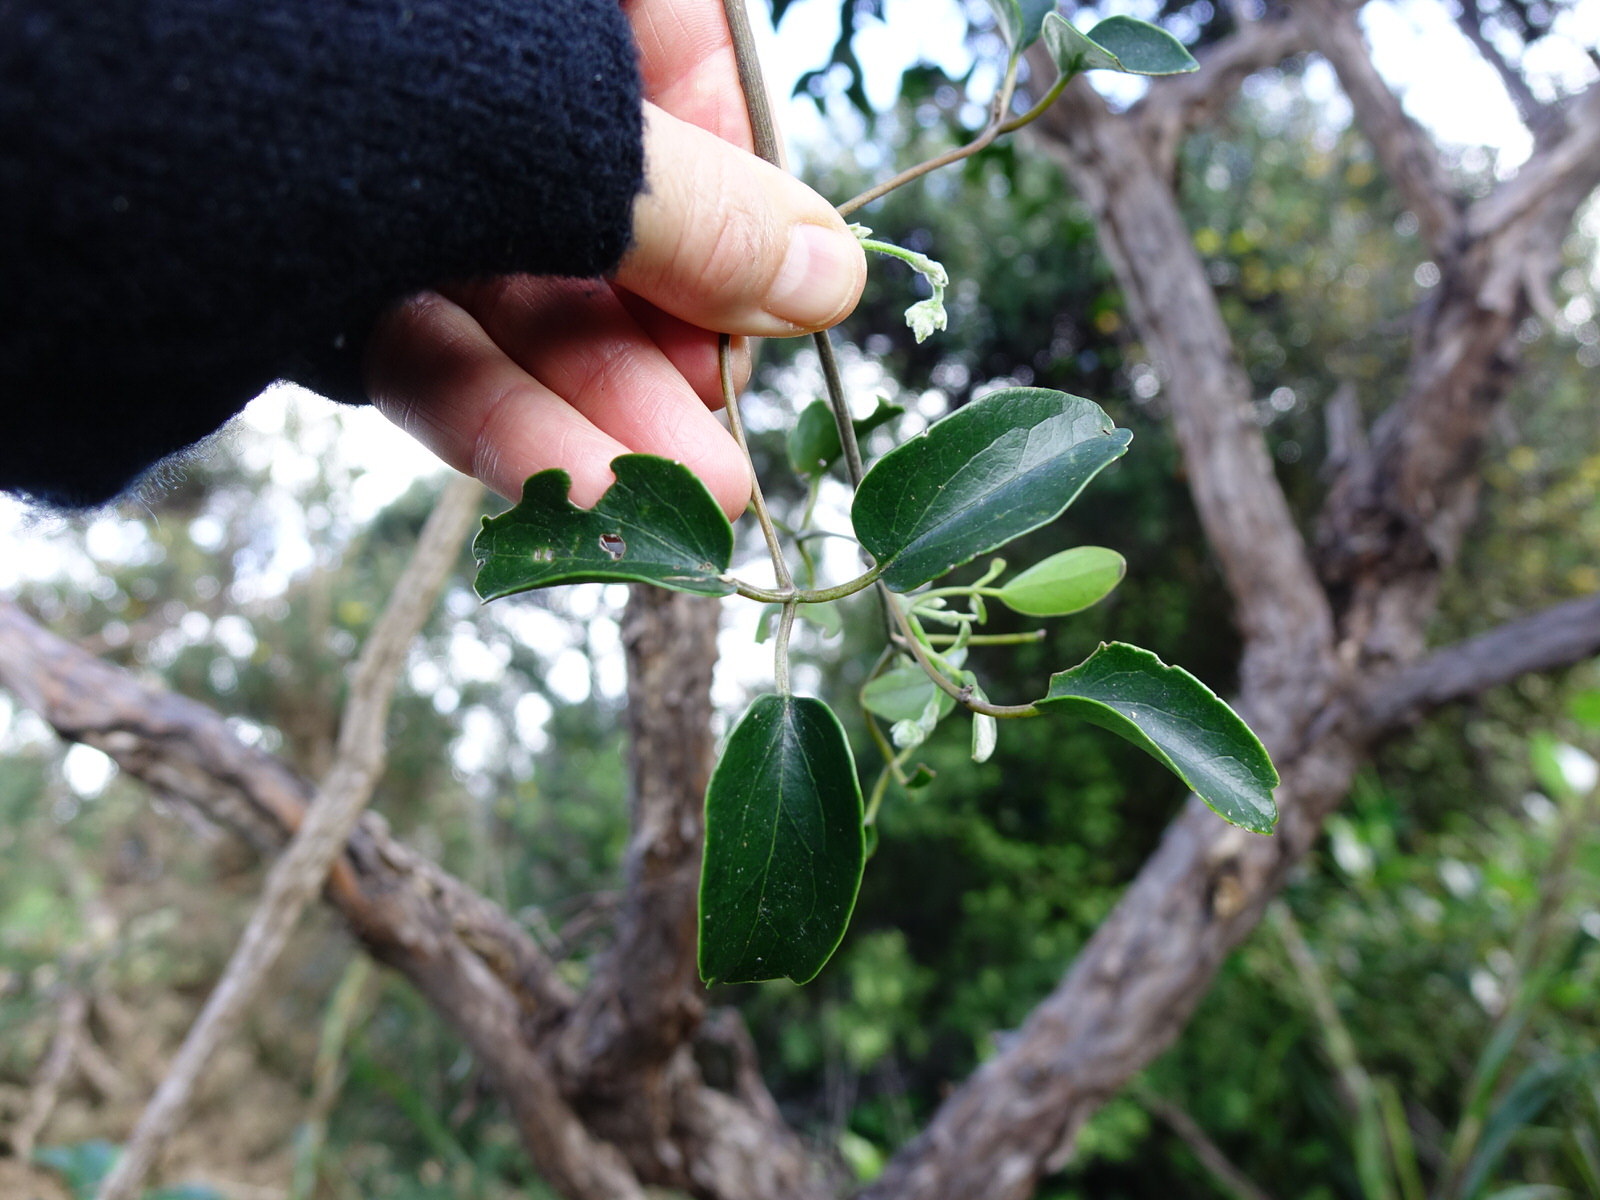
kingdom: Plantae
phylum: Tracheophyta
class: Magnoliopsida
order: Ranunculales
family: Ranunculaceae
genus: Clematis
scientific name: Clematis paniculata
